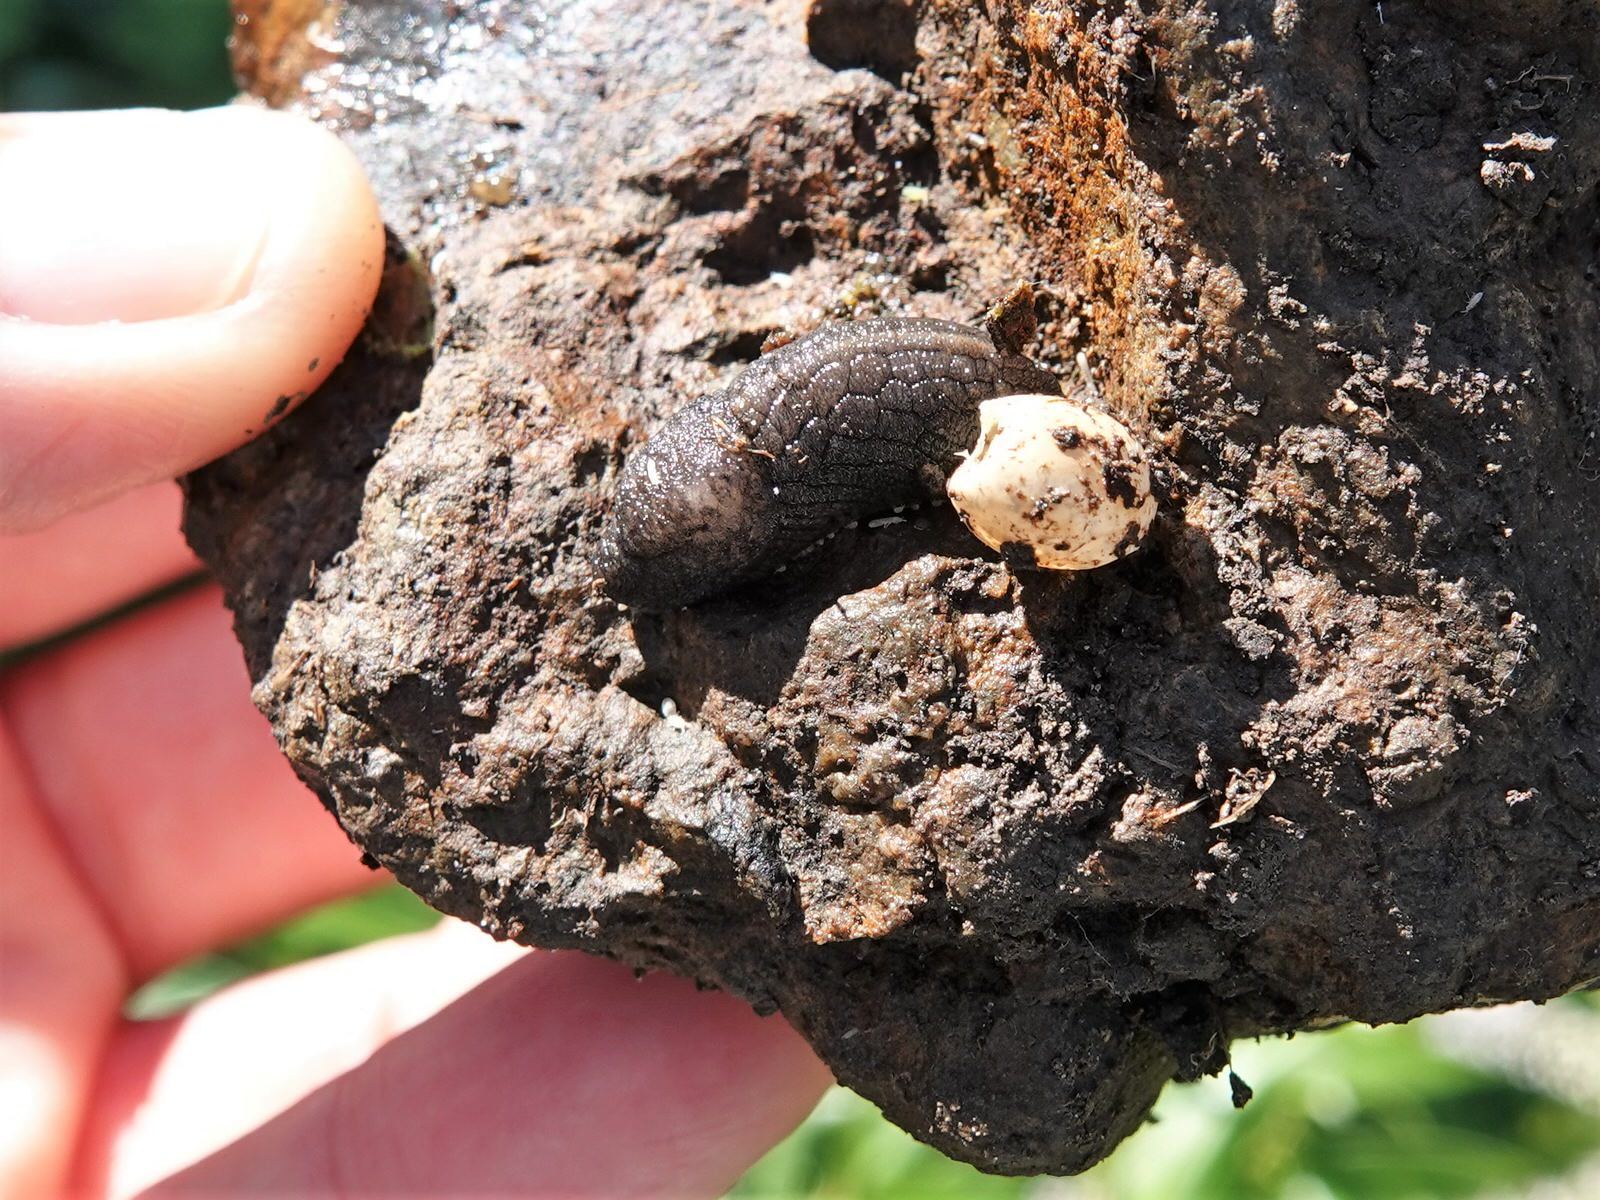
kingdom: Animalia
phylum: Mollusca
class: Gastropoda
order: Stylommatophora
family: Milacidae
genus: Tandonia
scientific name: Tandonia budapestensis
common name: Budapest slug
